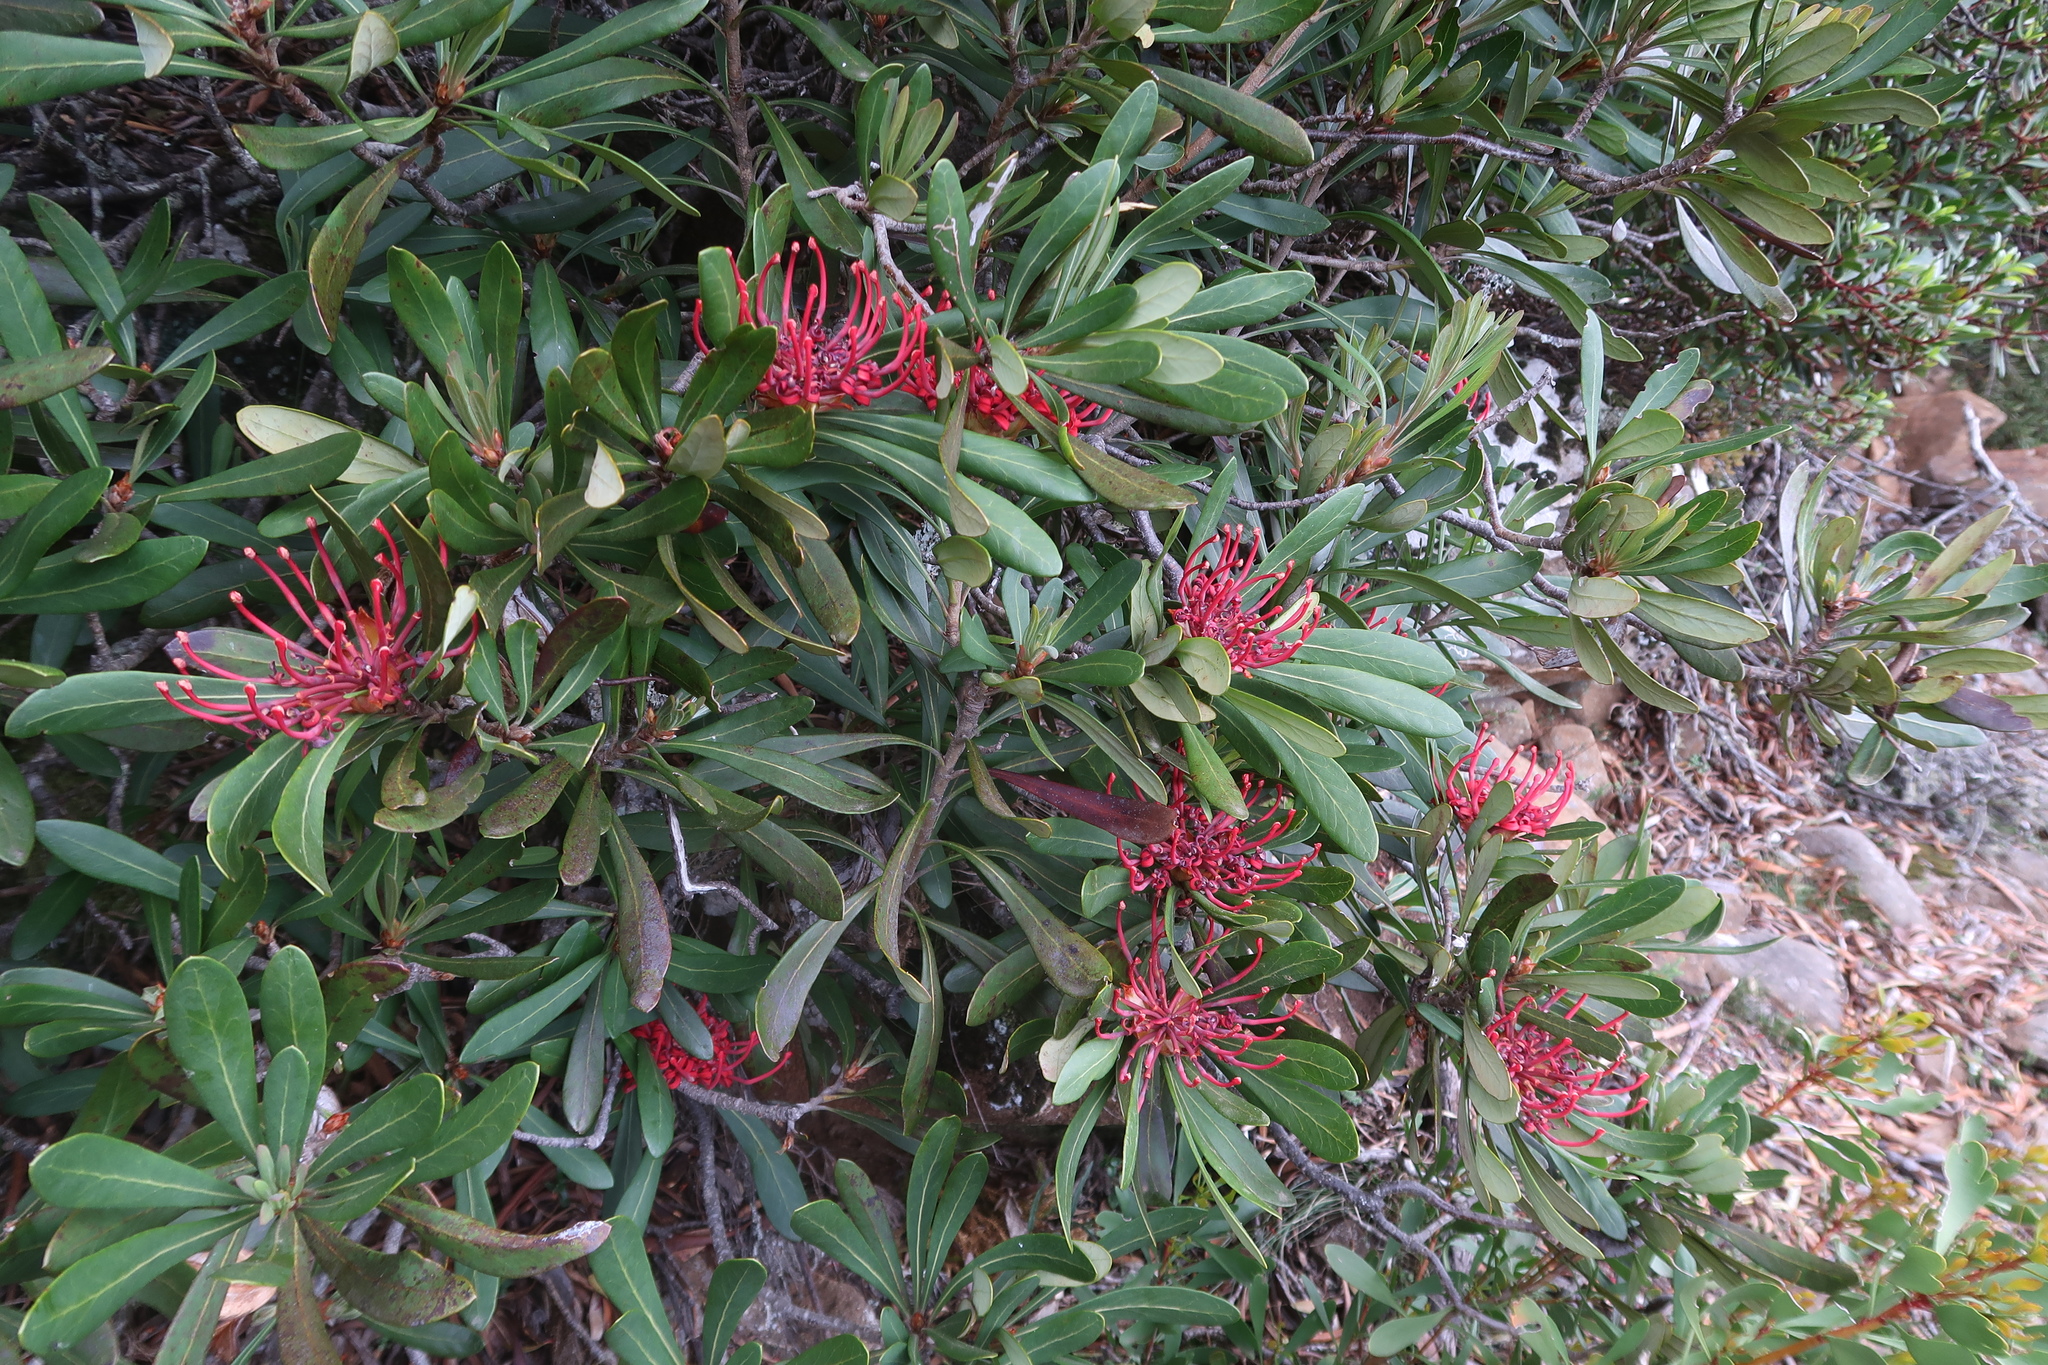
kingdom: Plantae
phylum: Tracheophyta
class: Magnoliopsida
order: Proteales
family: Proteaceae
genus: Telopea
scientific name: Telopea truncata
